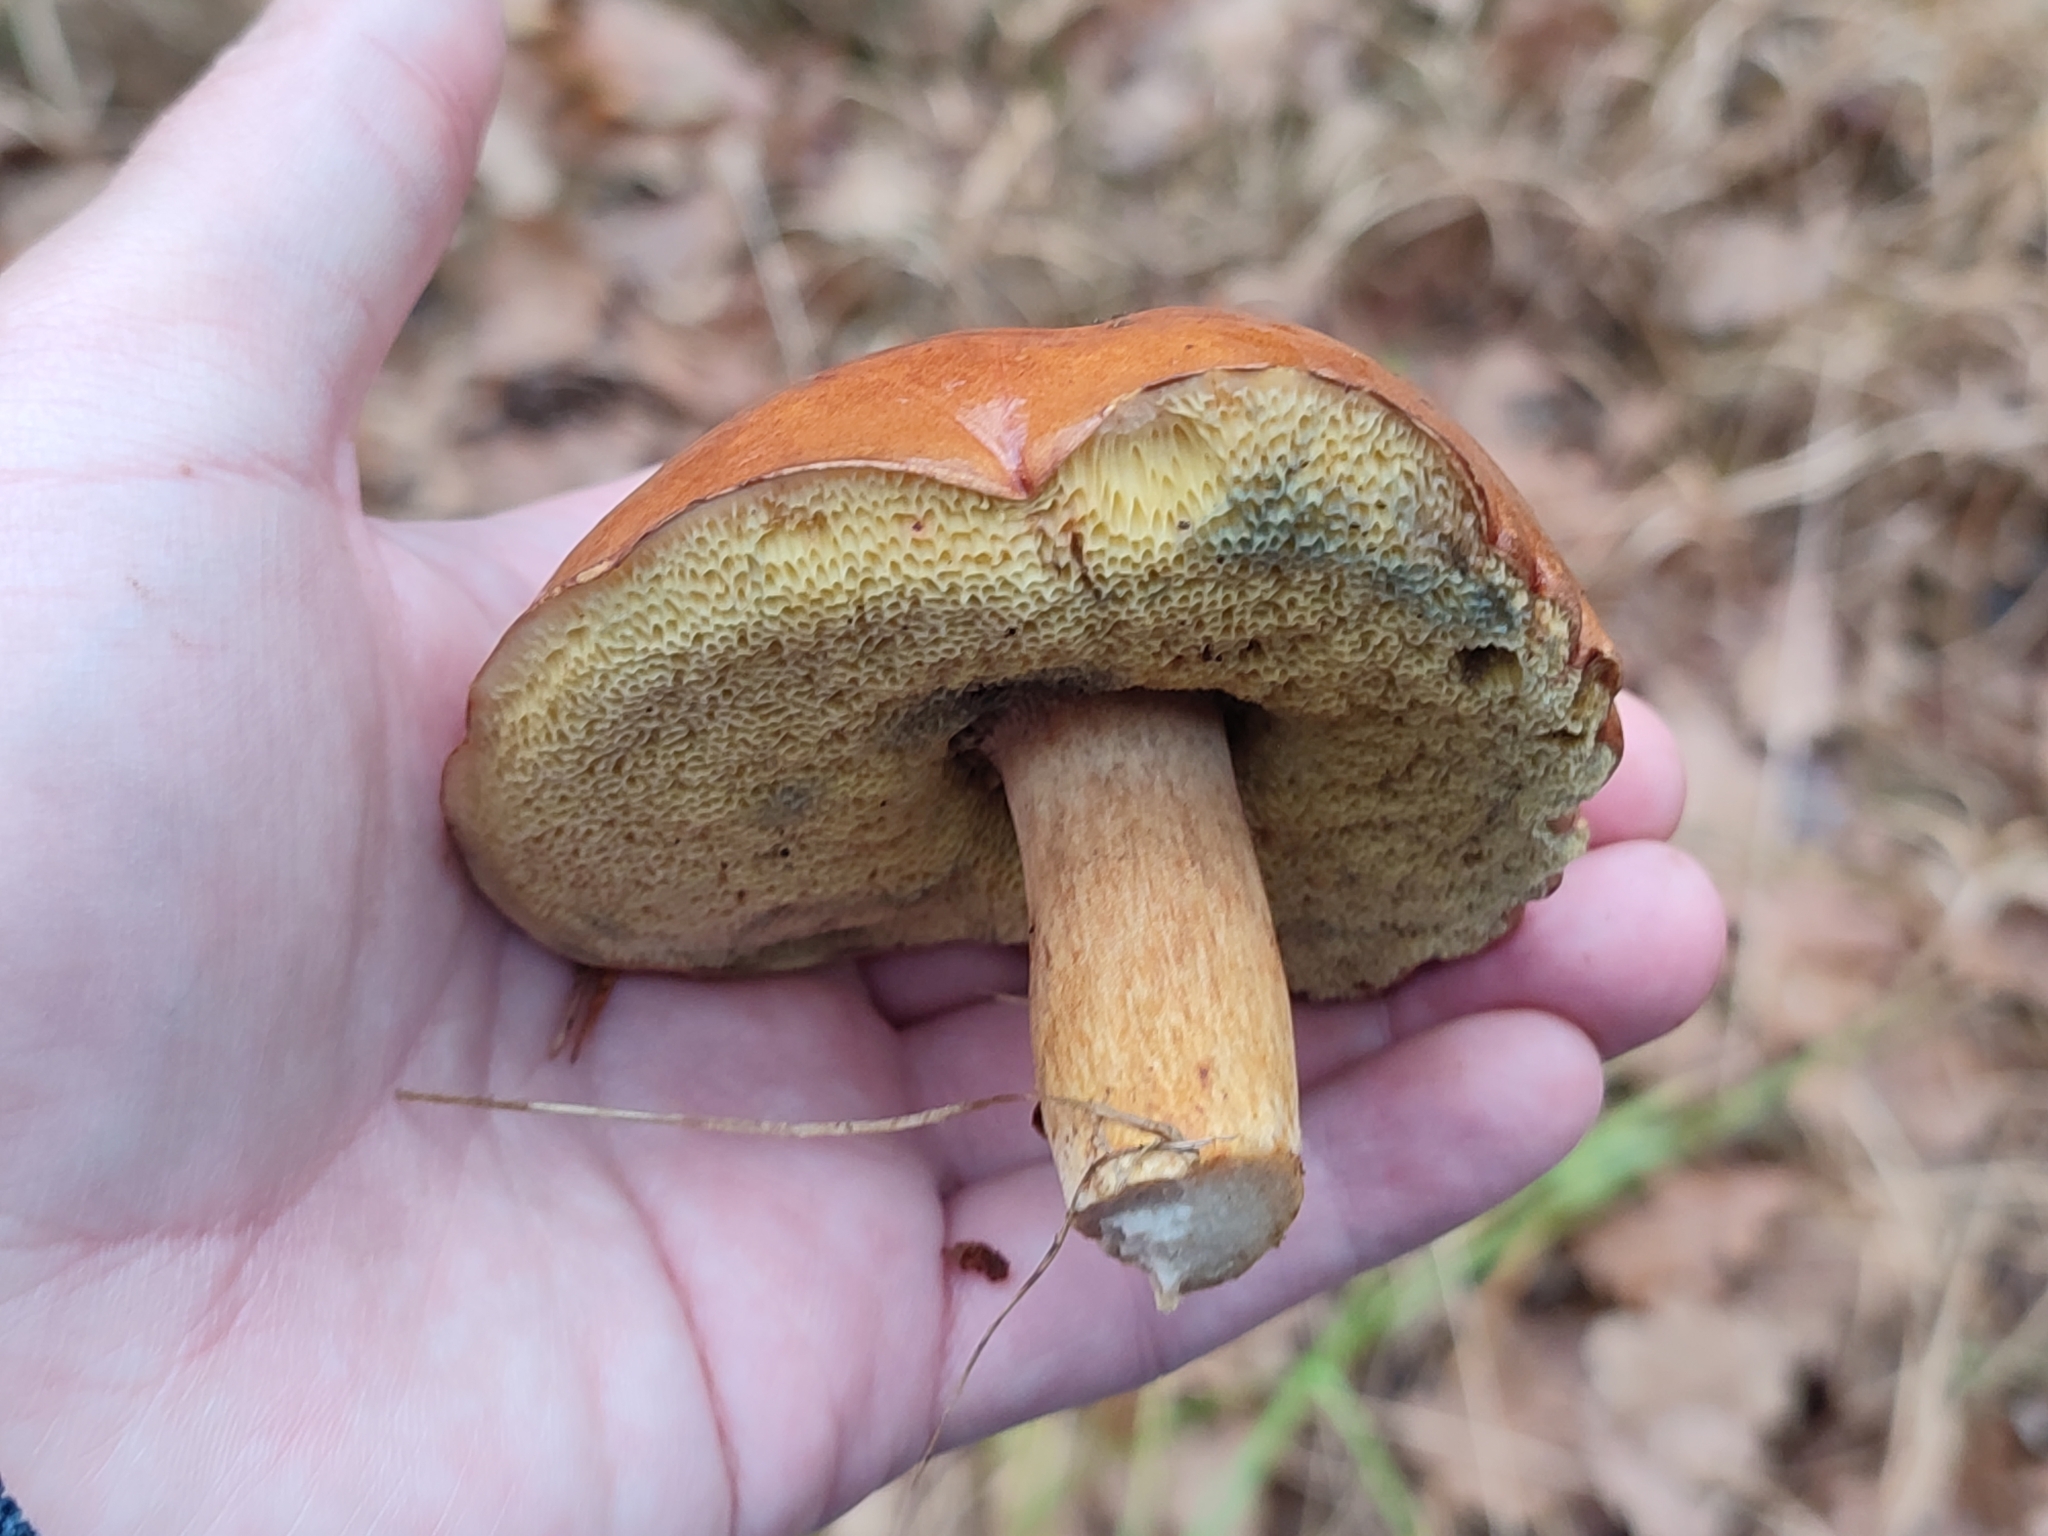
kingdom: Fungi
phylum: Basidiomycota
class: Agaricomycetes
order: Boletales
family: Boletaceae
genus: Imleria
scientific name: Imleria badia
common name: Bay bolete
